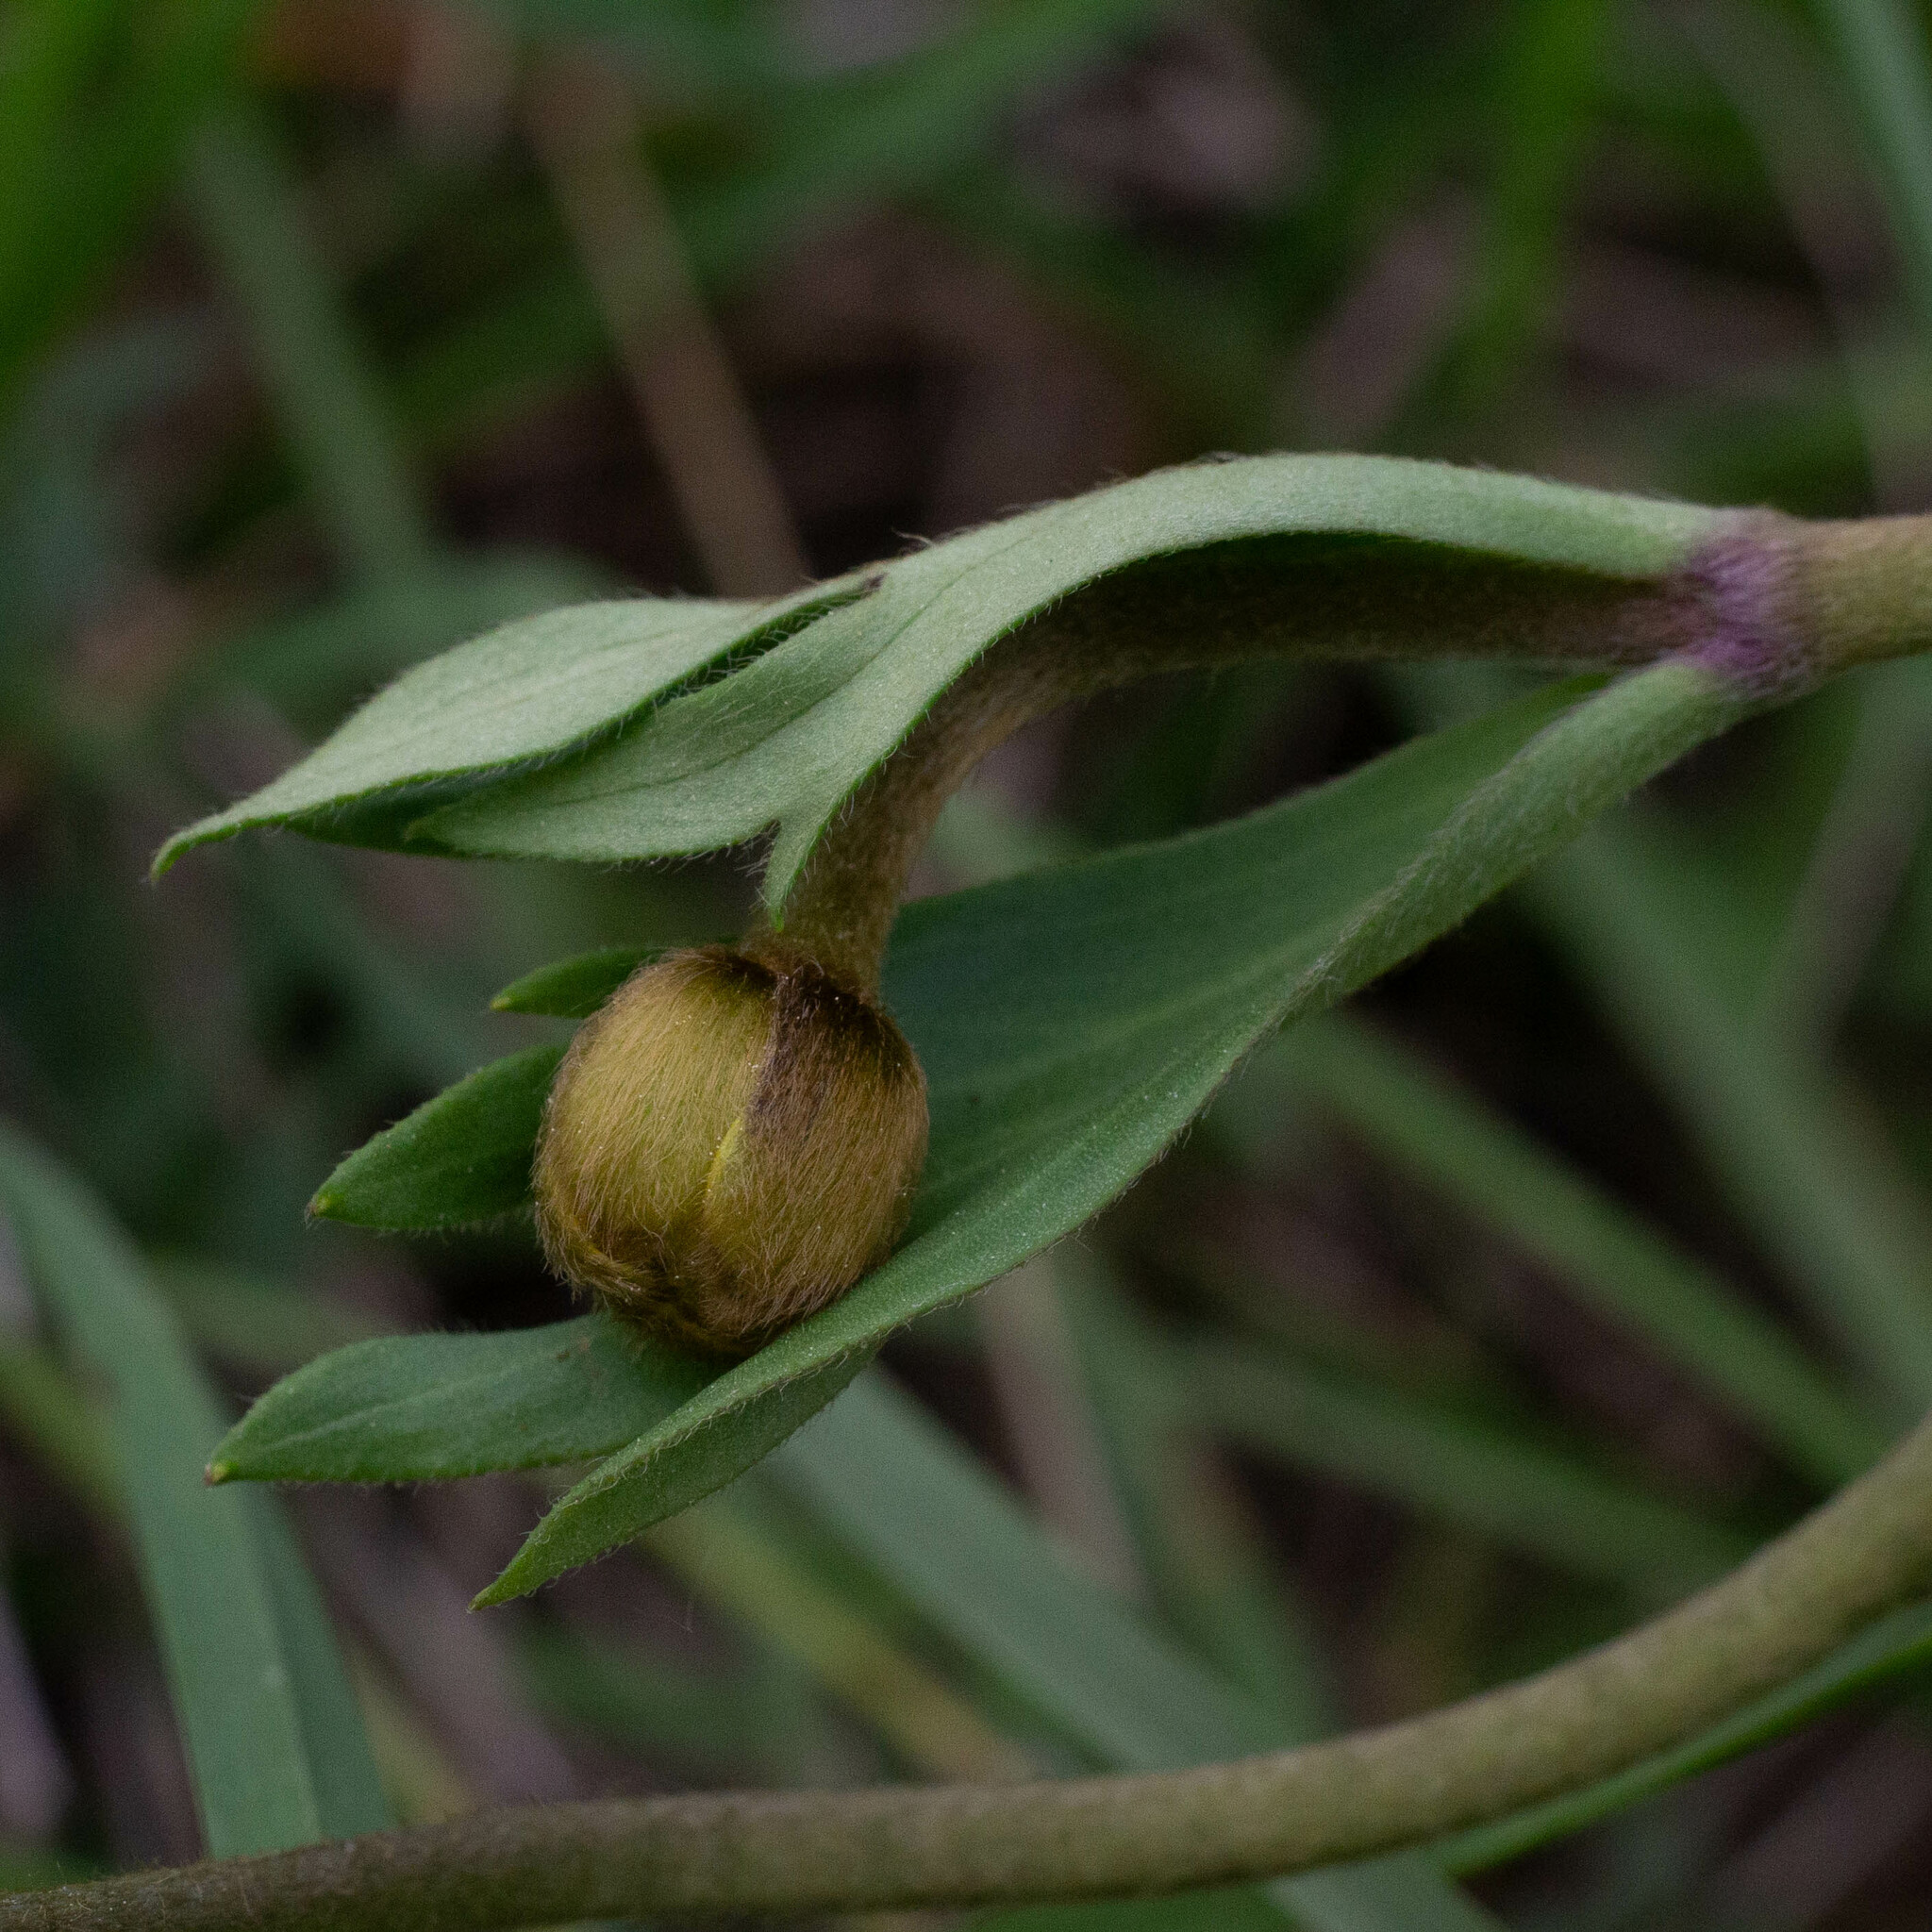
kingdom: Plantae
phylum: Tracheophyta
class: Magnoliopsida
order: Ranunculales
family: Ranunculaceae
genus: Anemone
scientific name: Anemone palmata
